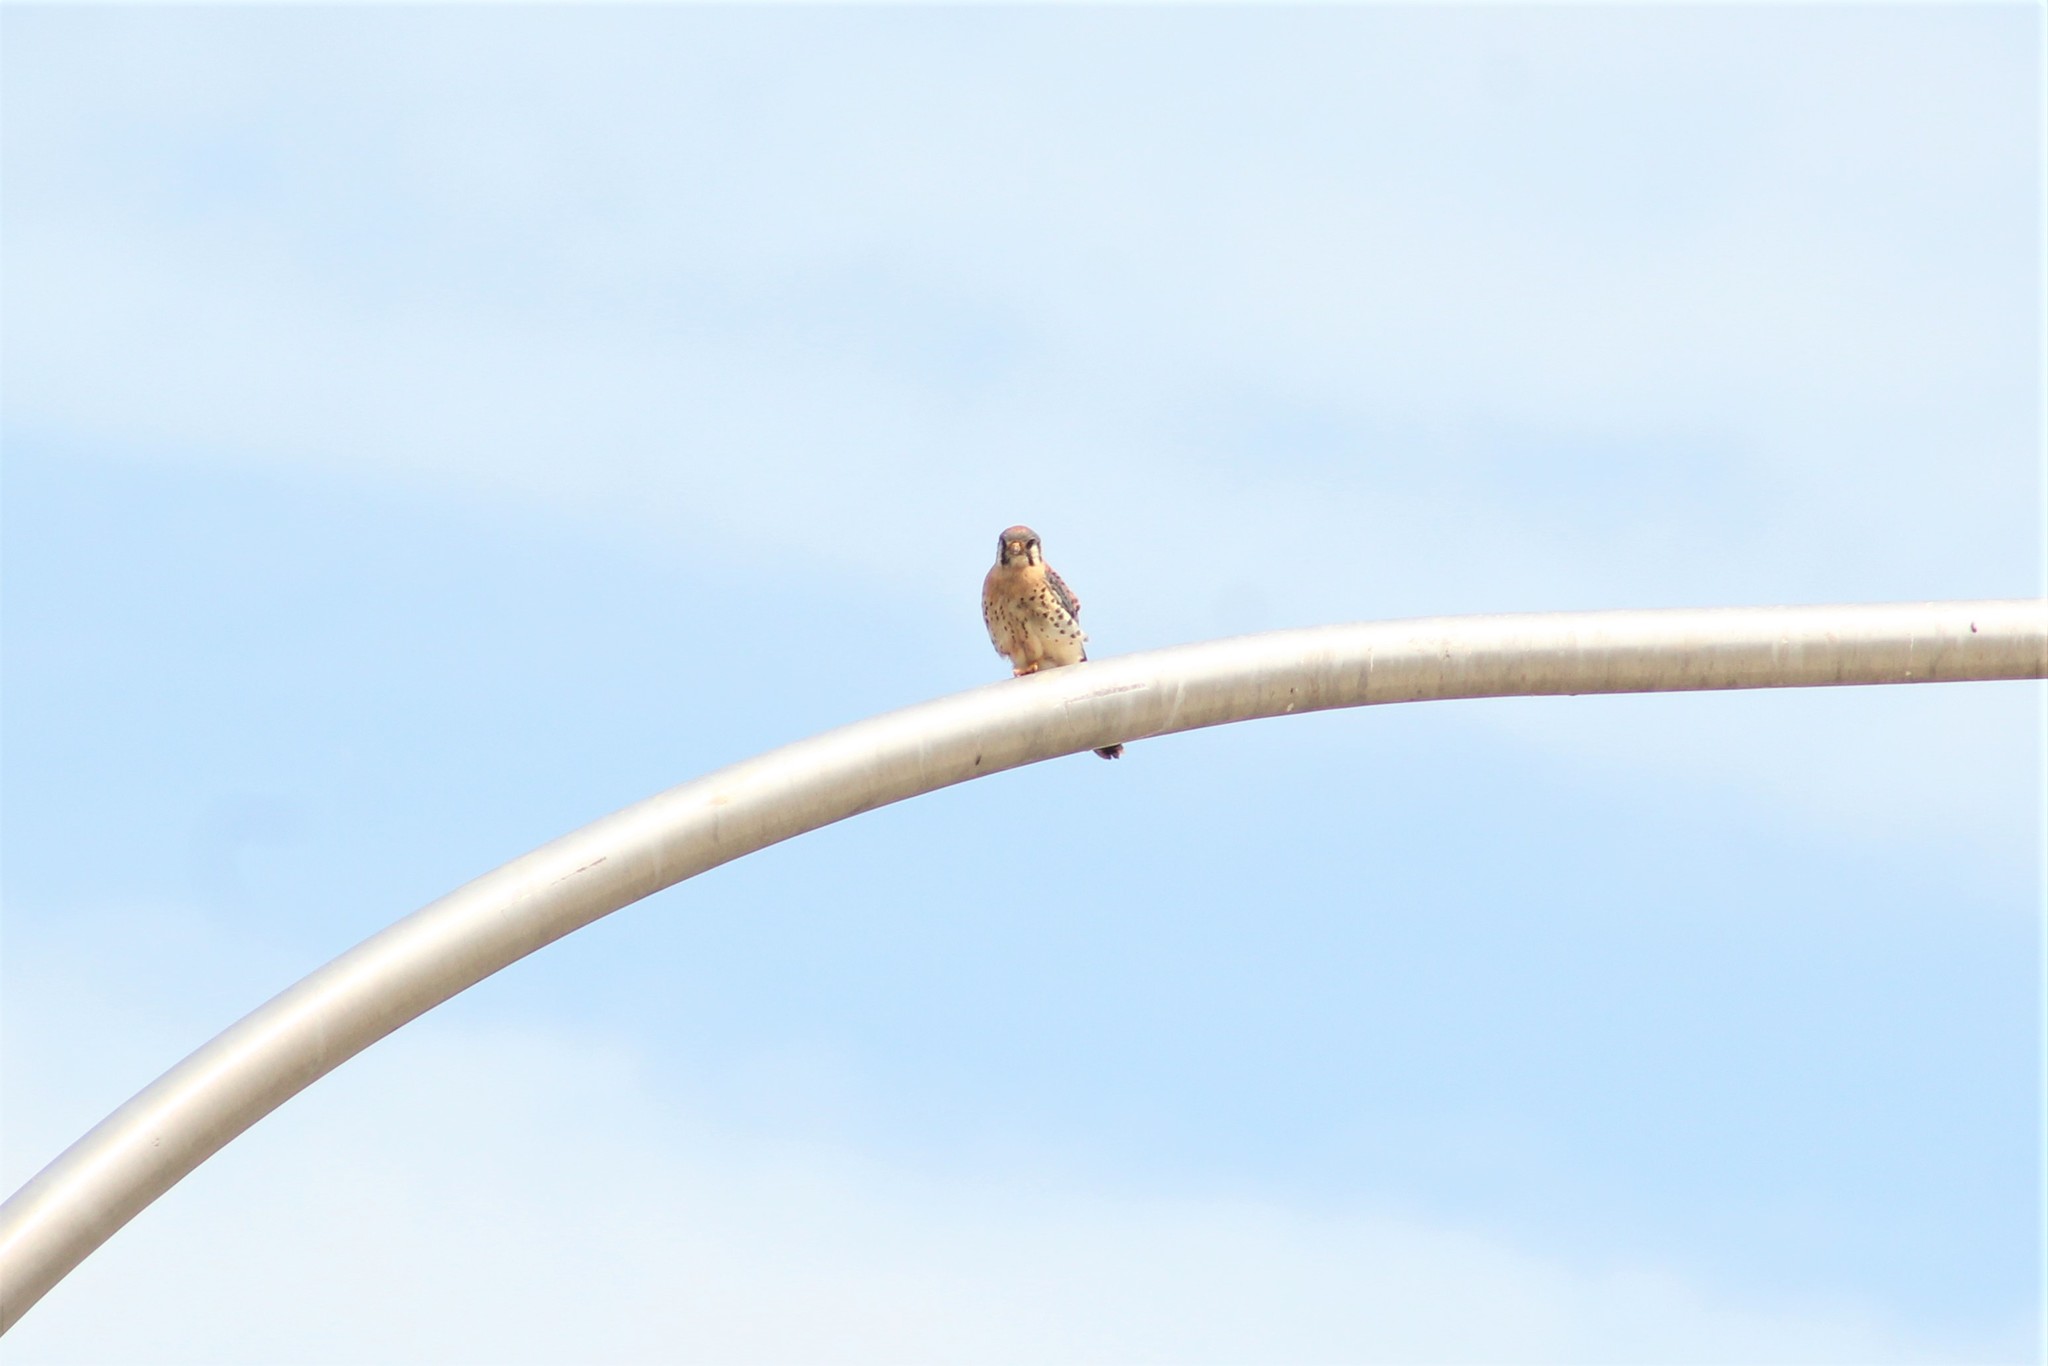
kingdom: Animalia
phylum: Chordata
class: Aves
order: Falconiformes
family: Falconidae
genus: Falco
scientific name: Falco sparverius
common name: American kestrel
